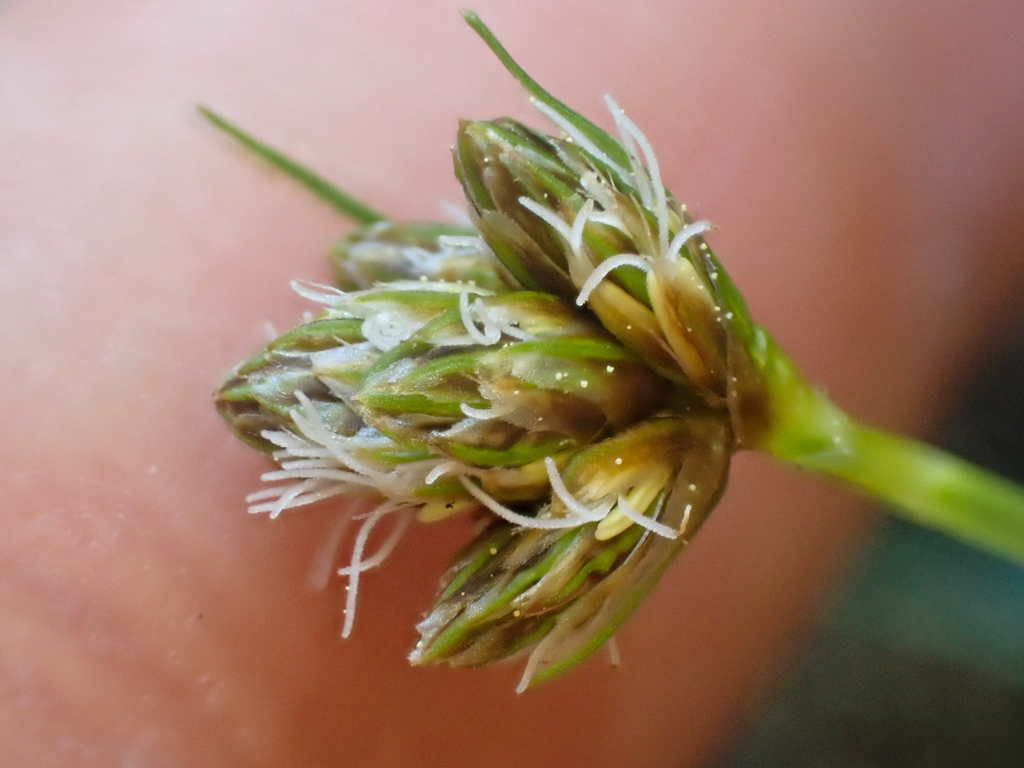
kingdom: Plantae
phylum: Tracheophyta
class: Liliopsida
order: Poales
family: Cyperaceae
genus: Calliscirpus
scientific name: Calliscirpus criniger
